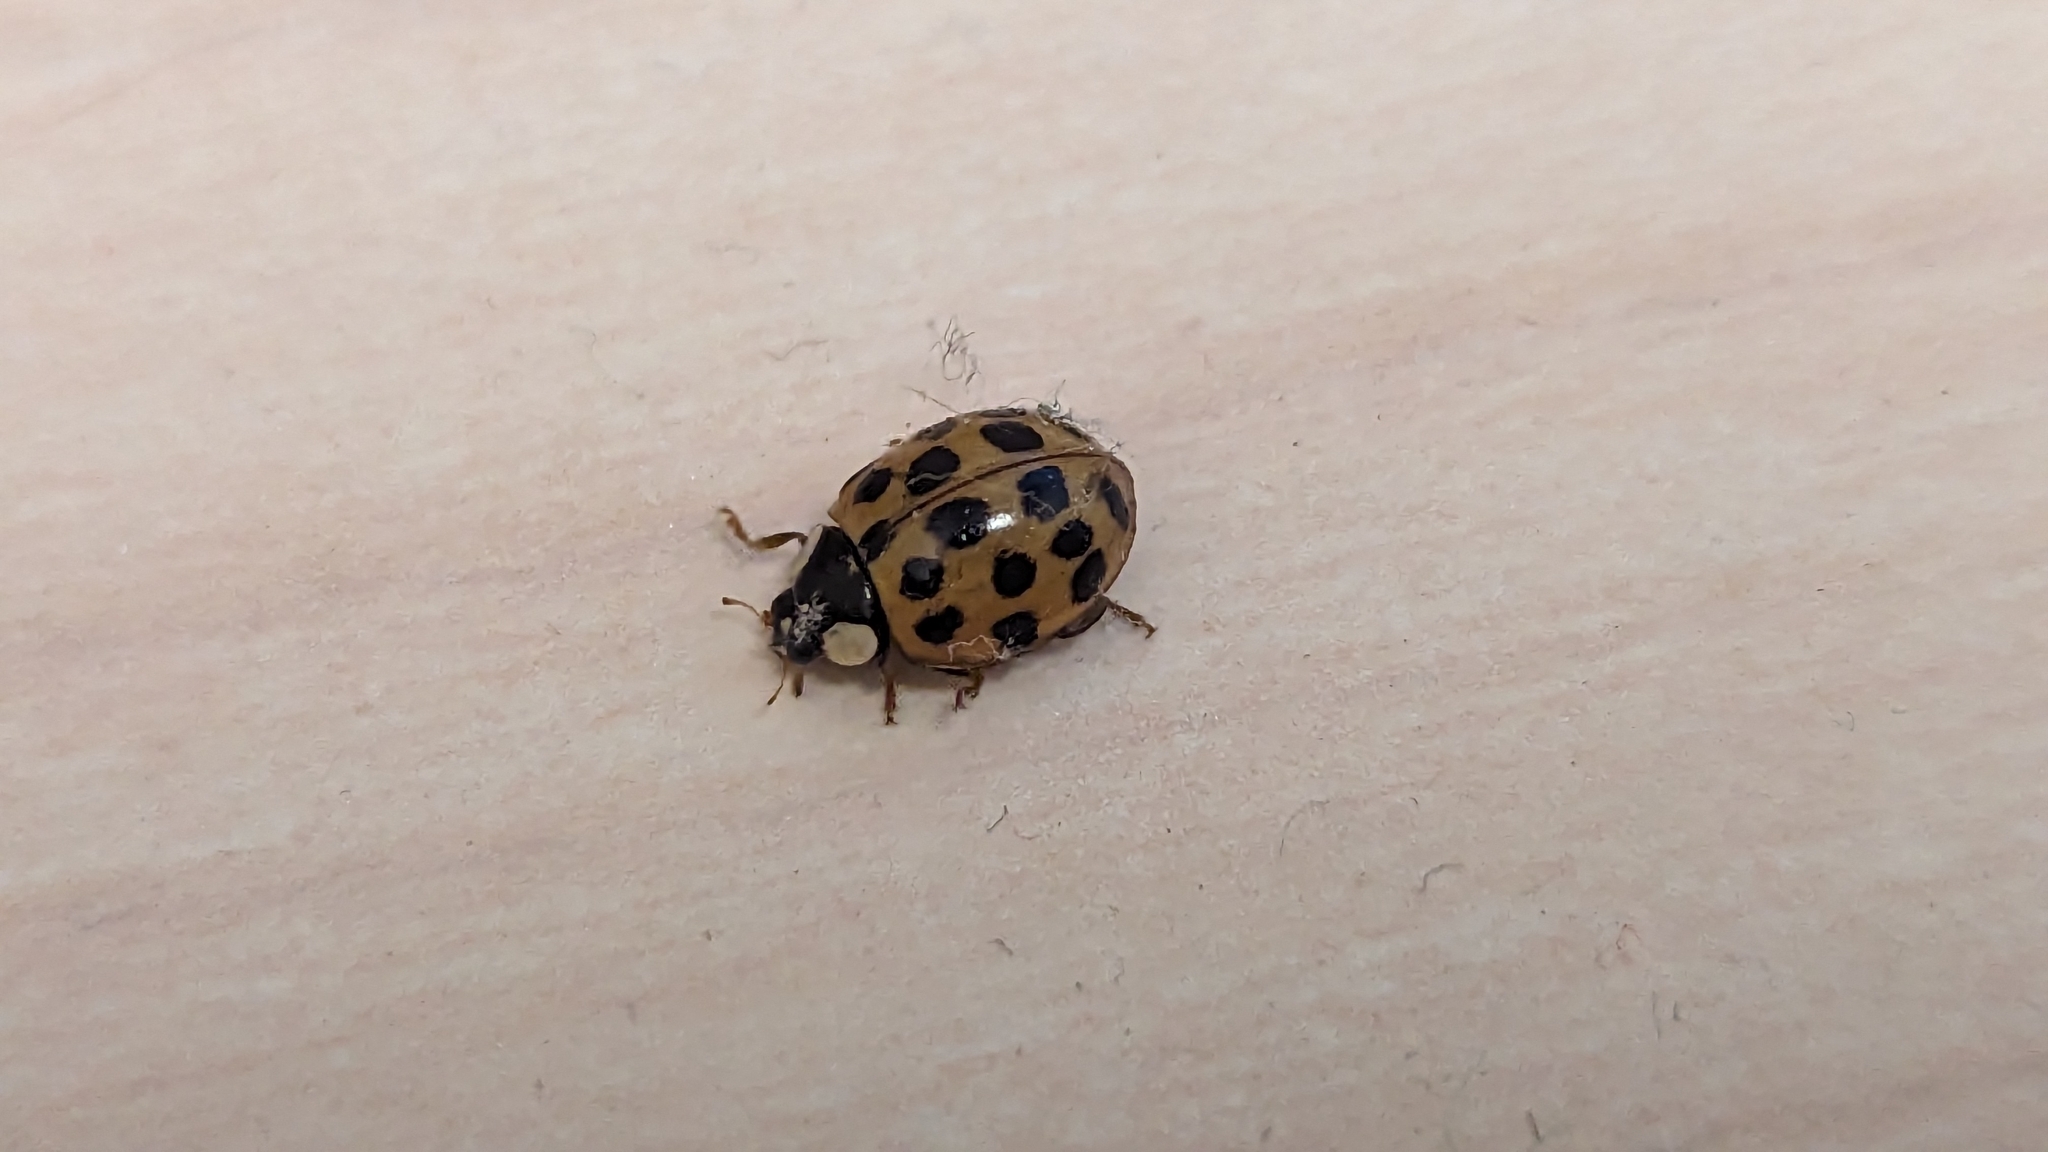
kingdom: Animalia
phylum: Arthropoda
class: Insecta
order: Coleoptera
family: Coccinellidae
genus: Harmonia
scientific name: Harmonia axyridis
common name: Harlequin ladybird
